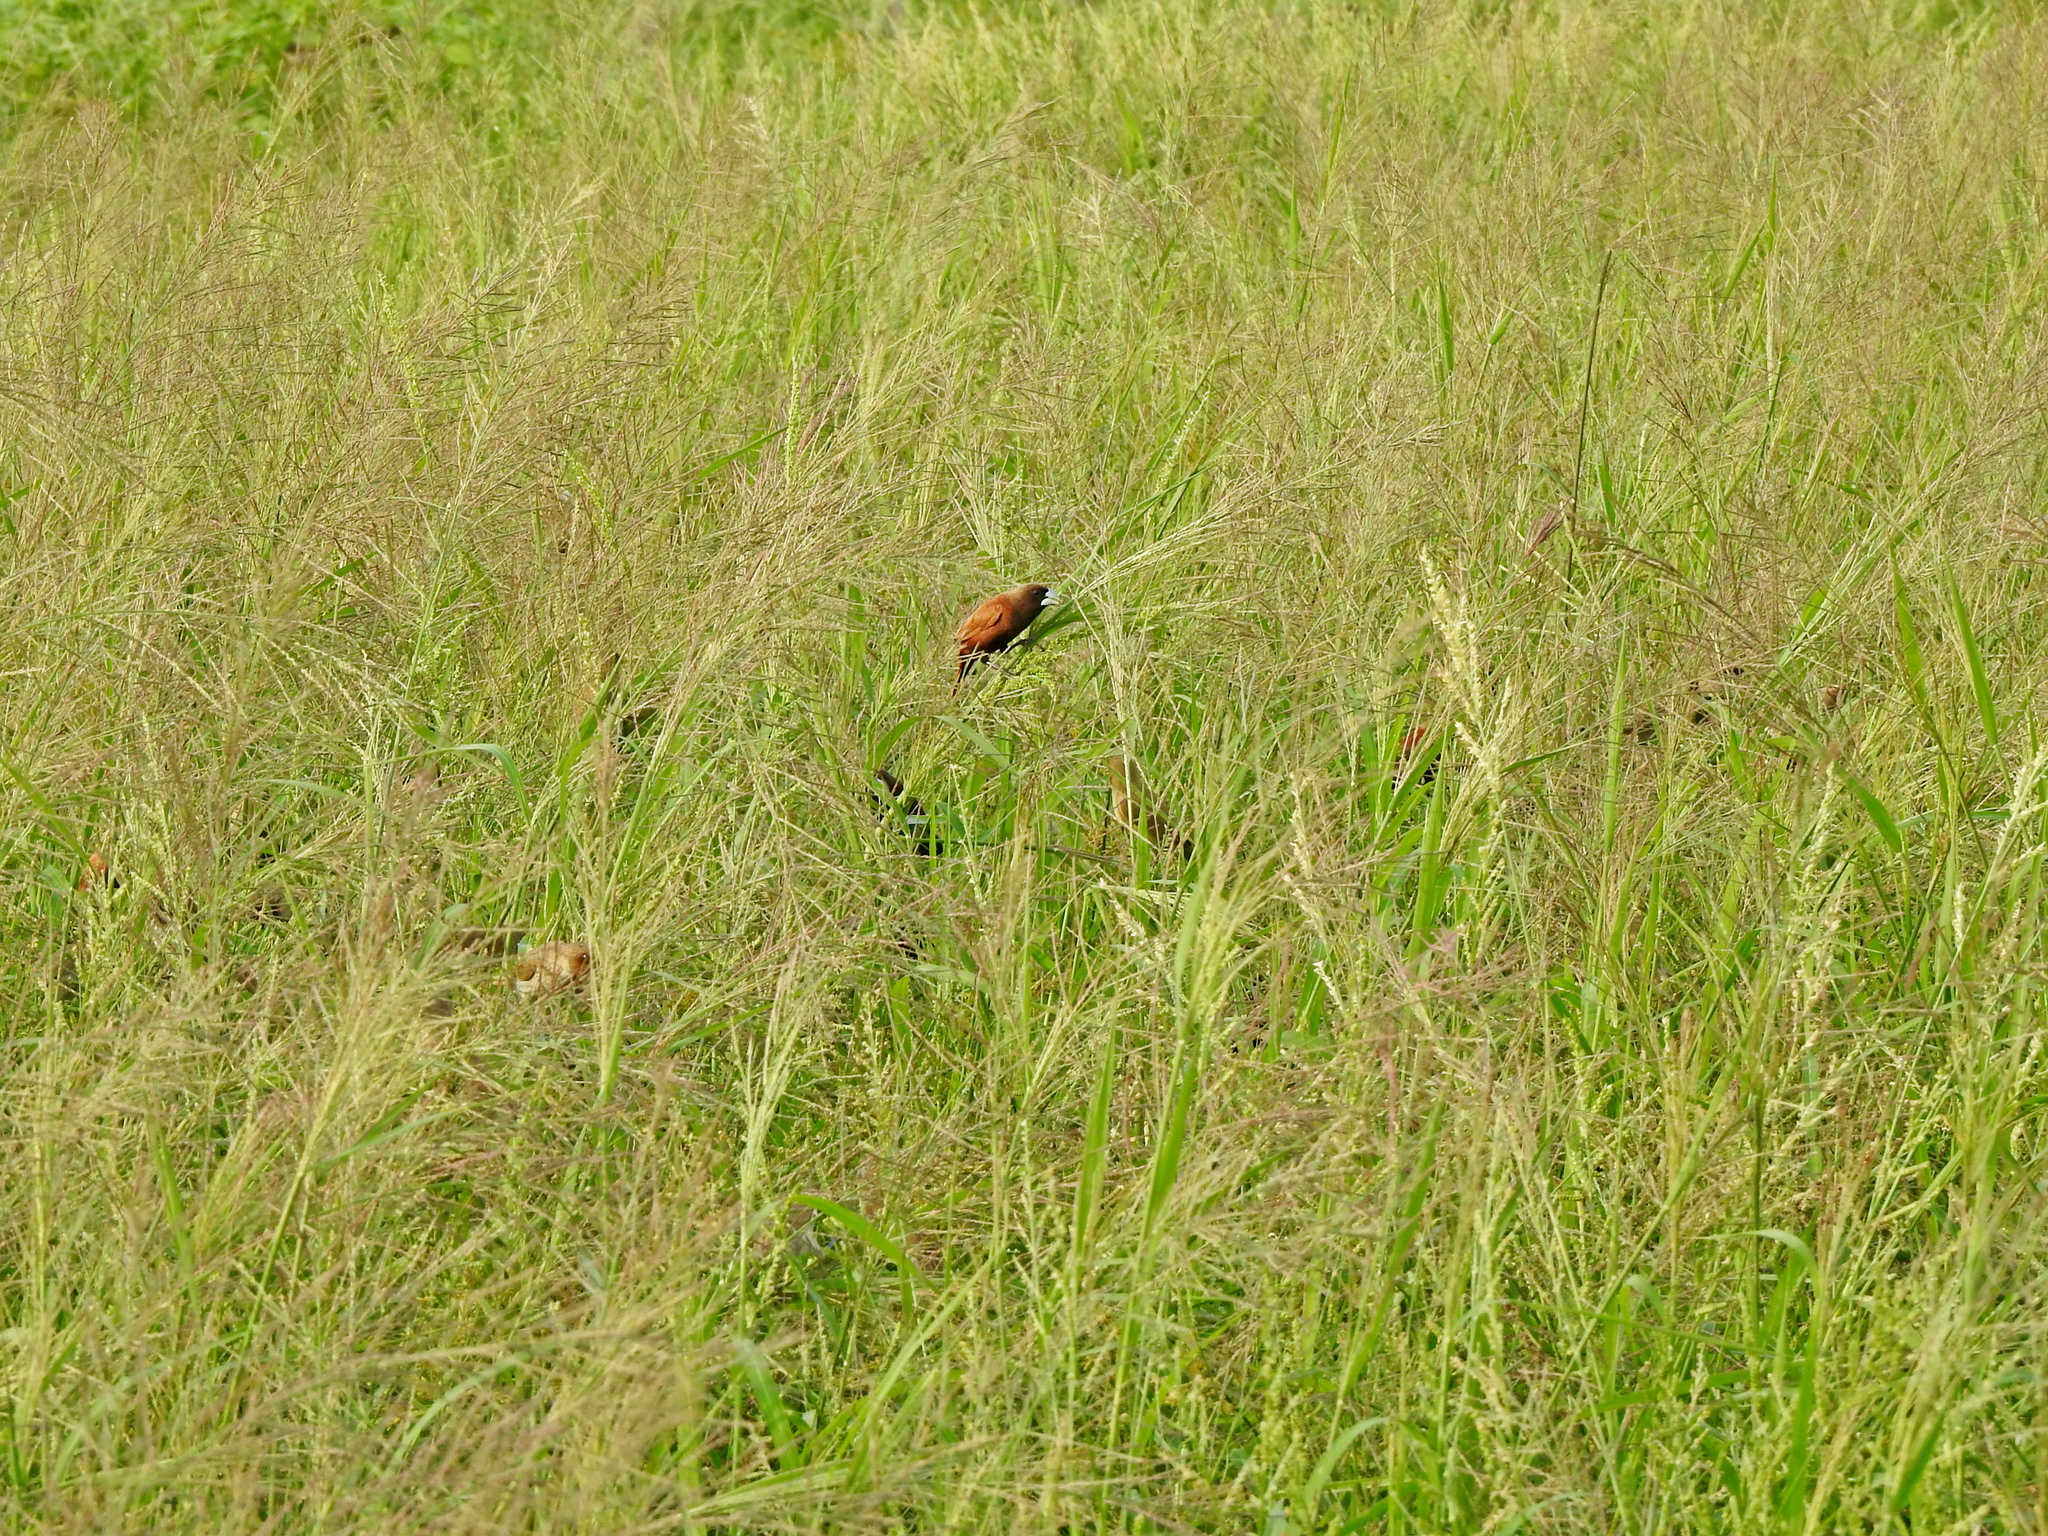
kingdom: Animalia
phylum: Chordata
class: Aves
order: Passeriformes
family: Estrildidae
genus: Lonchura
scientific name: Lonchura atricapilla
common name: Chestnut munia
